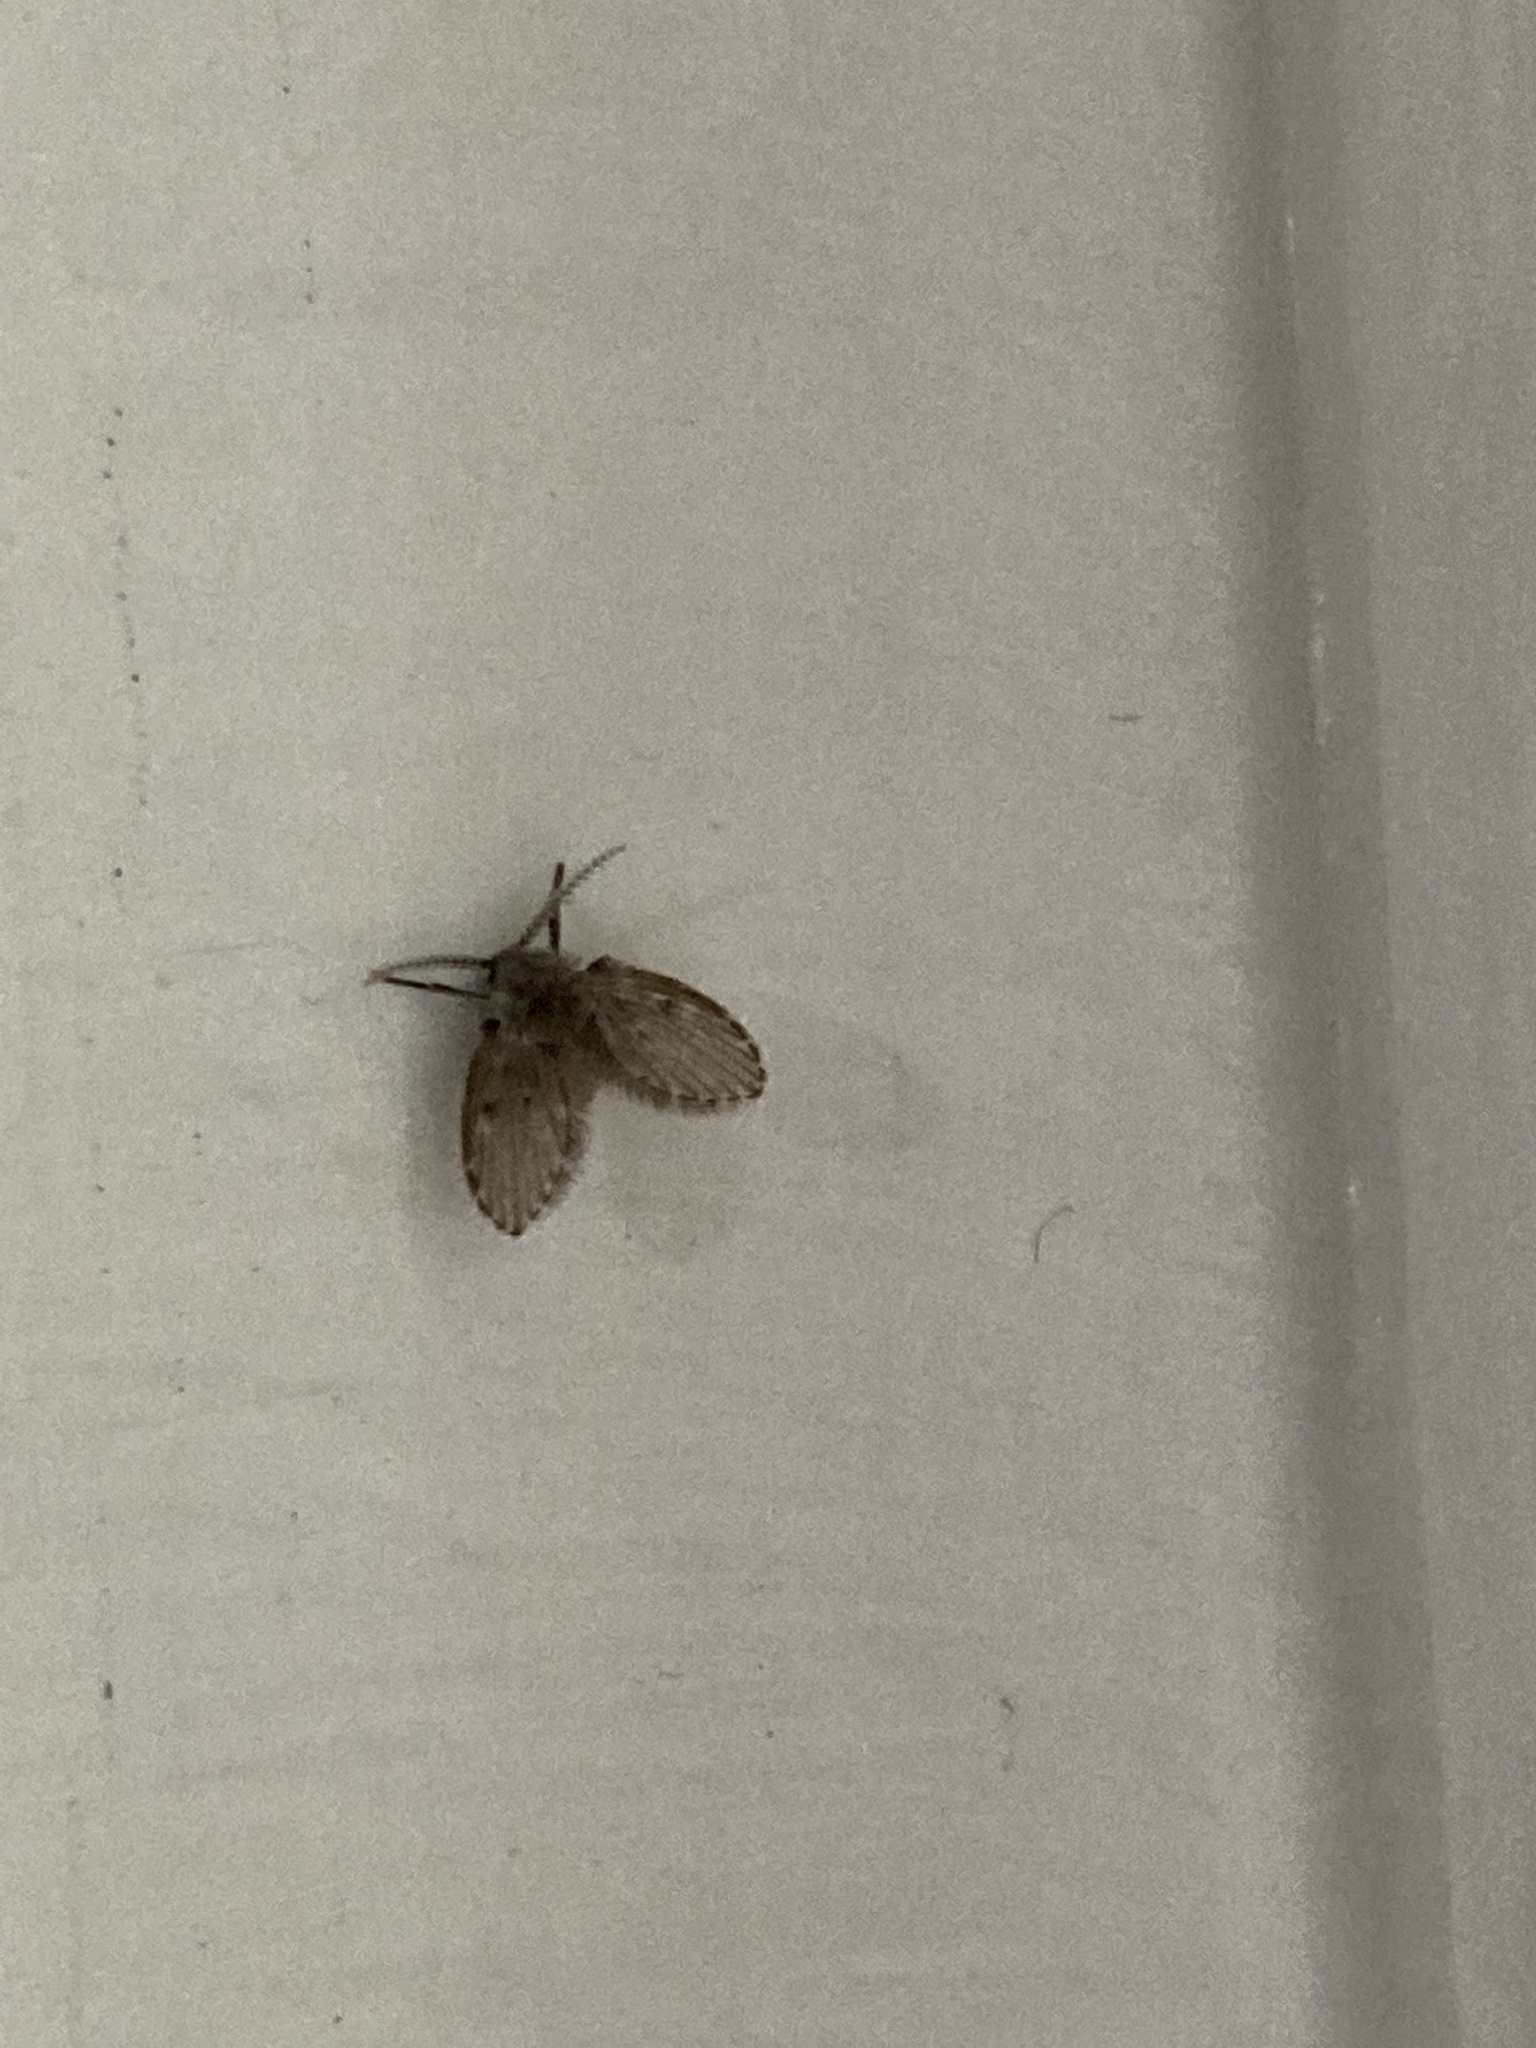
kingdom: Animalia
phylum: Arthropoda
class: Insecta
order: Diptera
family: Psychodidae
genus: Clogmia
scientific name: Clogmia albipunctatus
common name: White-spotted moth fly
